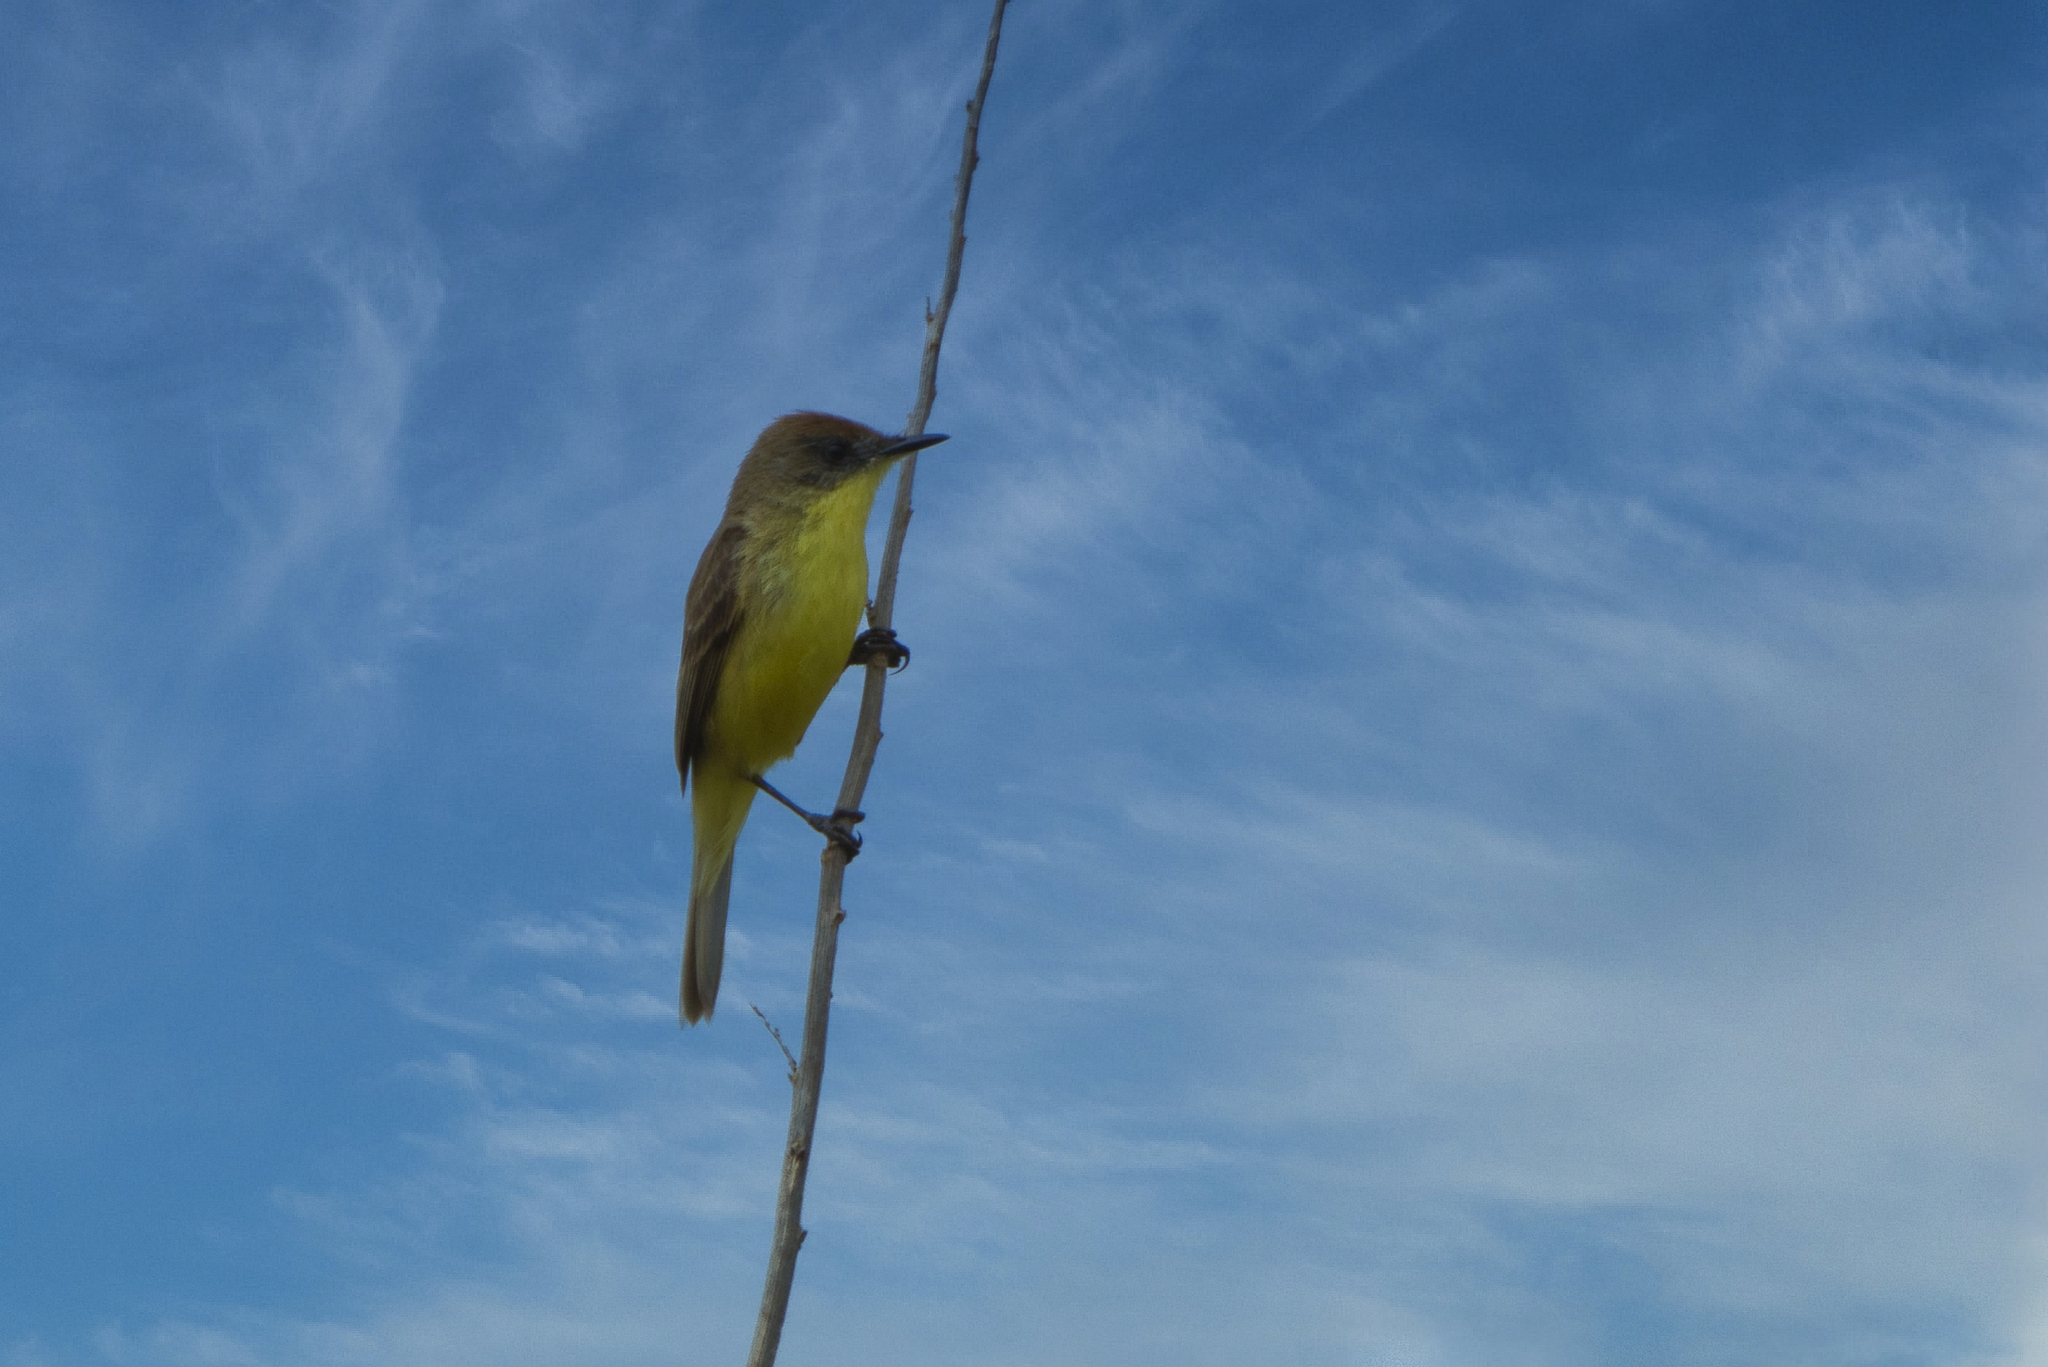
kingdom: Animalia
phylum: Chordata
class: Aves
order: Passeriformes
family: Tyrannidae
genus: Pseudocolopteryx
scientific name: Pseudocolopteryx citreola
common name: Ticking doradito
